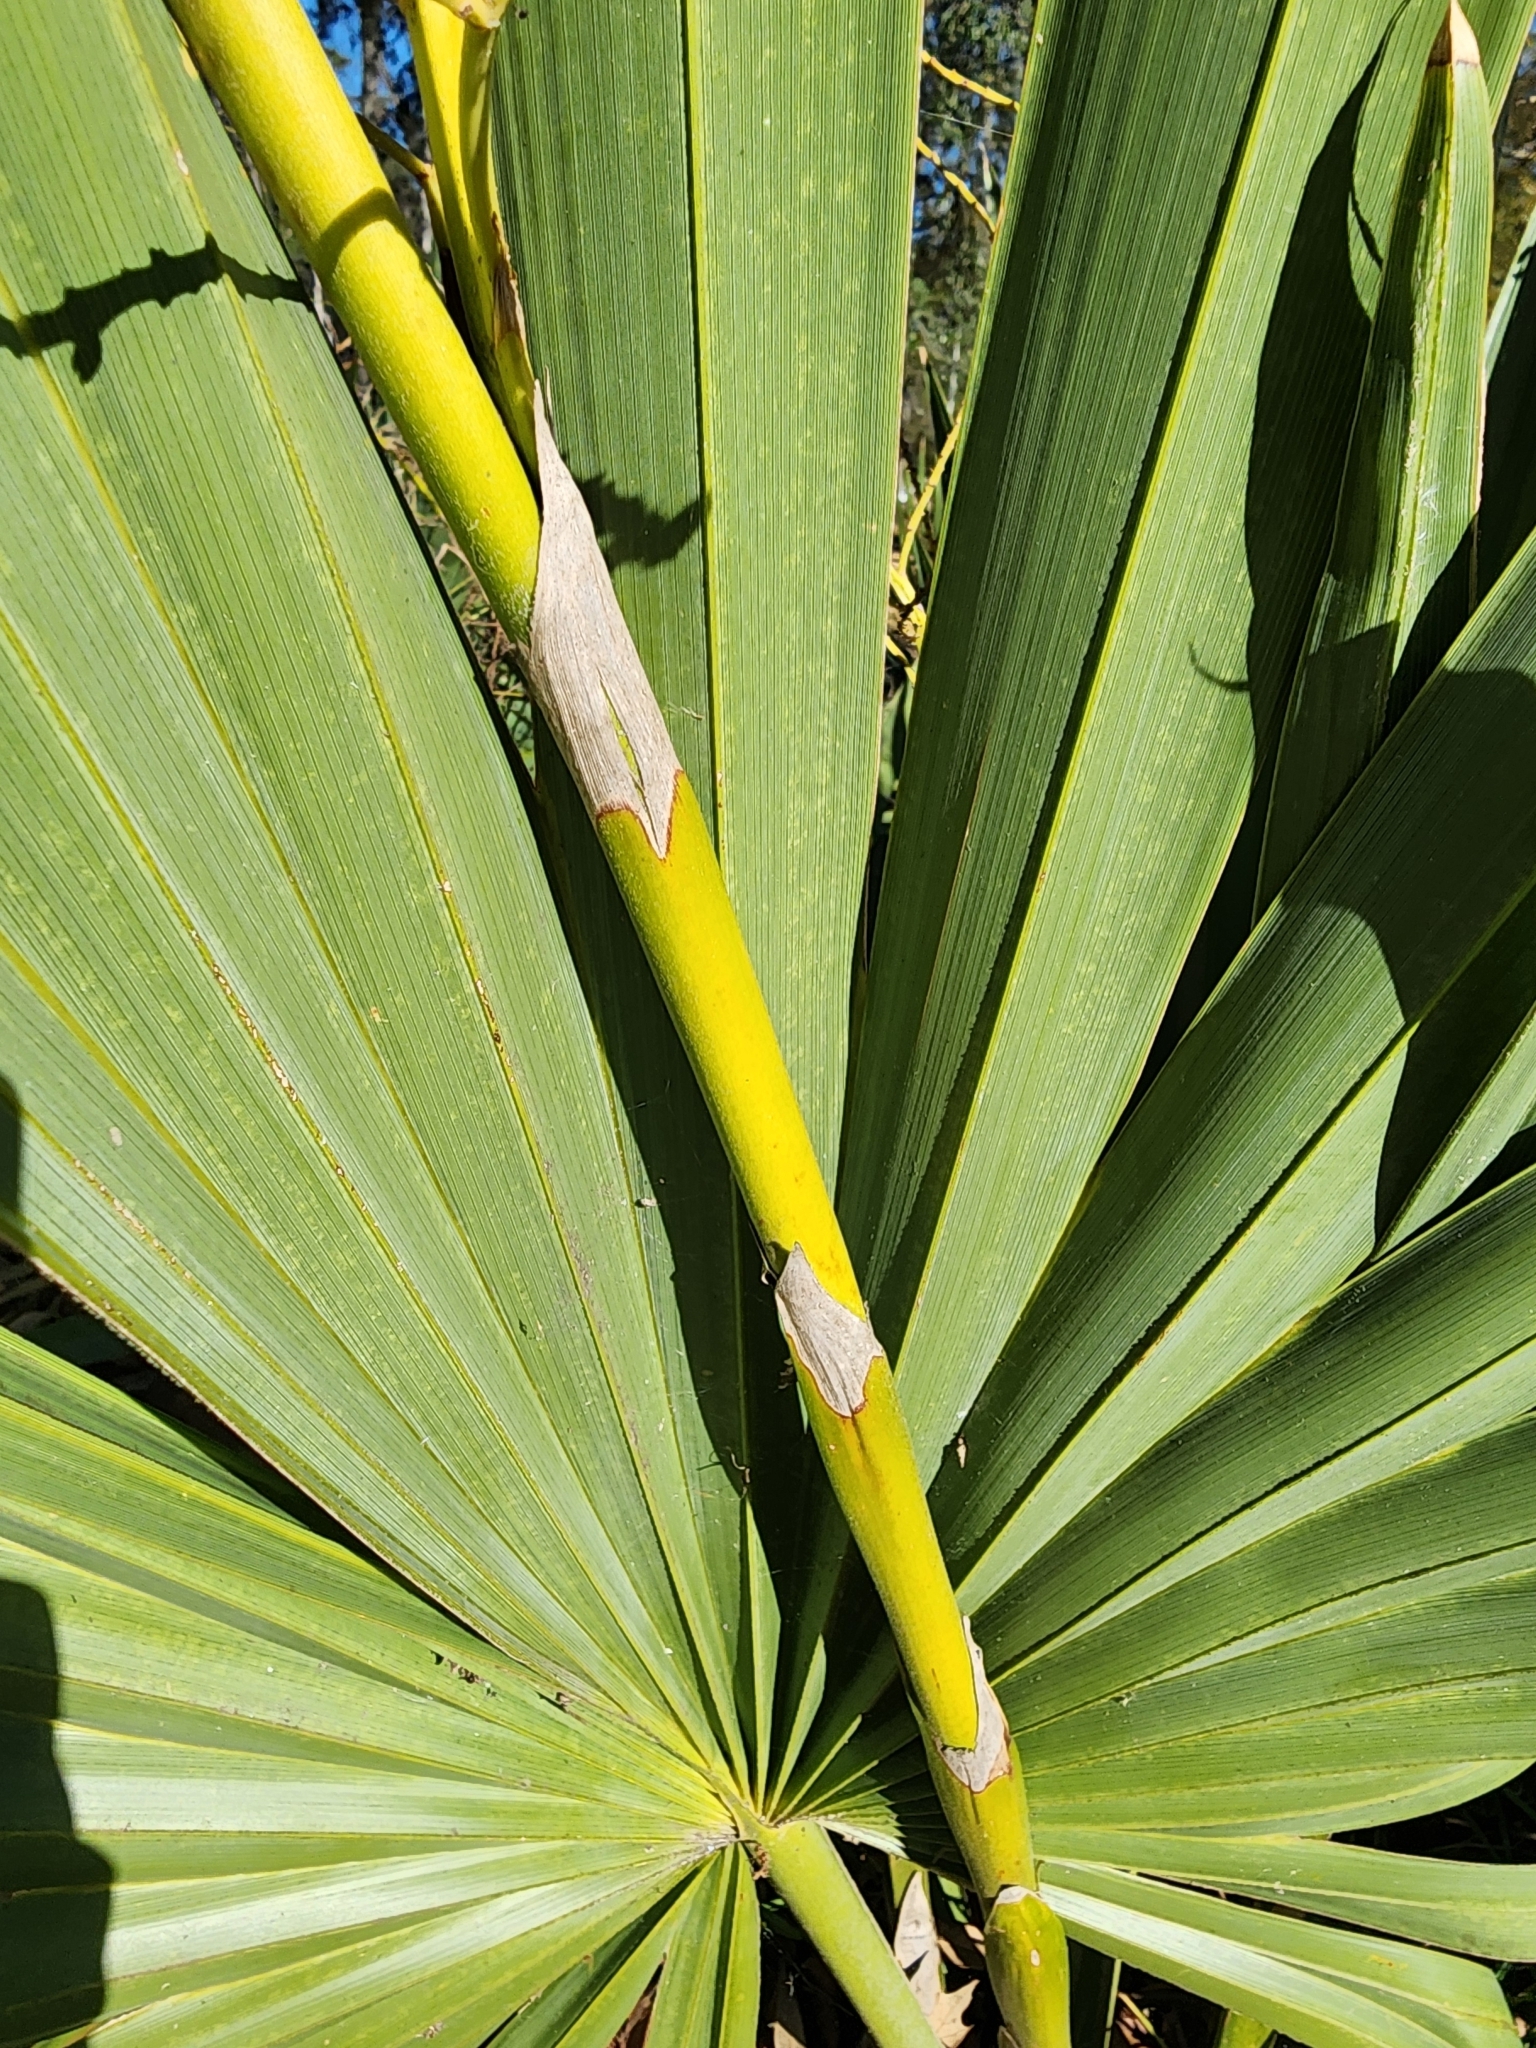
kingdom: Plantae
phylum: Tracheophyta
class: Liliopsida
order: Arecales
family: Arecaceae
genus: Sabal
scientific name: Sabal minor
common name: Dwarf palmetto
